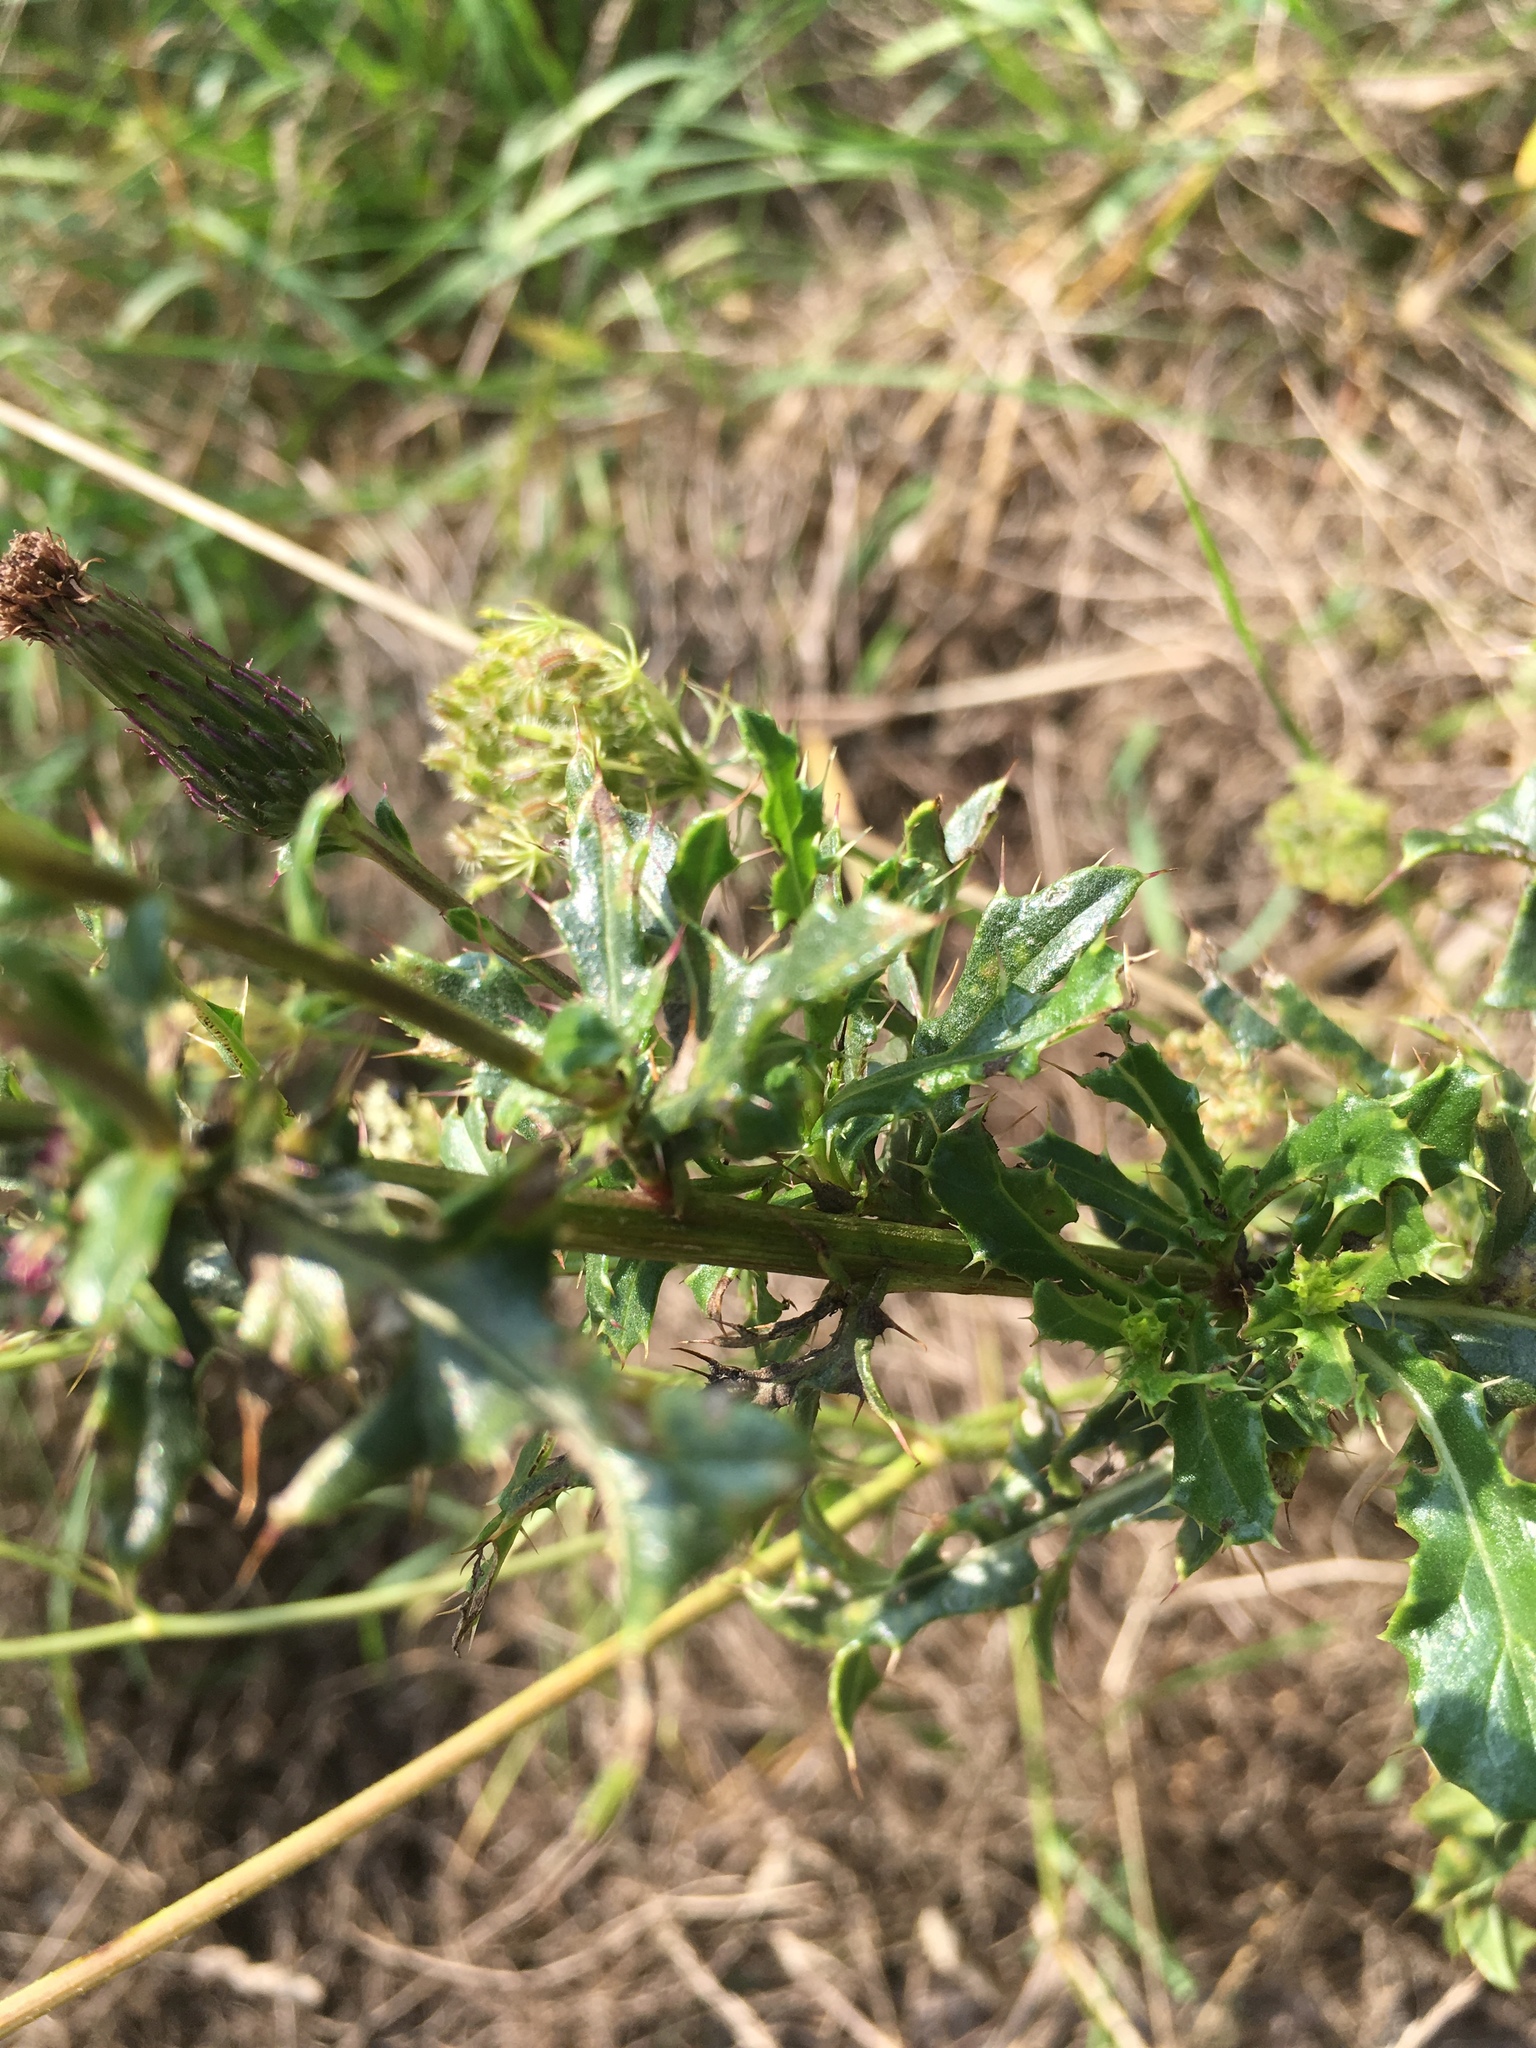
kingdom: Plantae
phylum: Tracheophyta
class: Magnoliopsida
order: Asterales
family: Asteraceae
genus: Cirsium
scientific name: Cirsium arvense
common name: Creeping thistle
